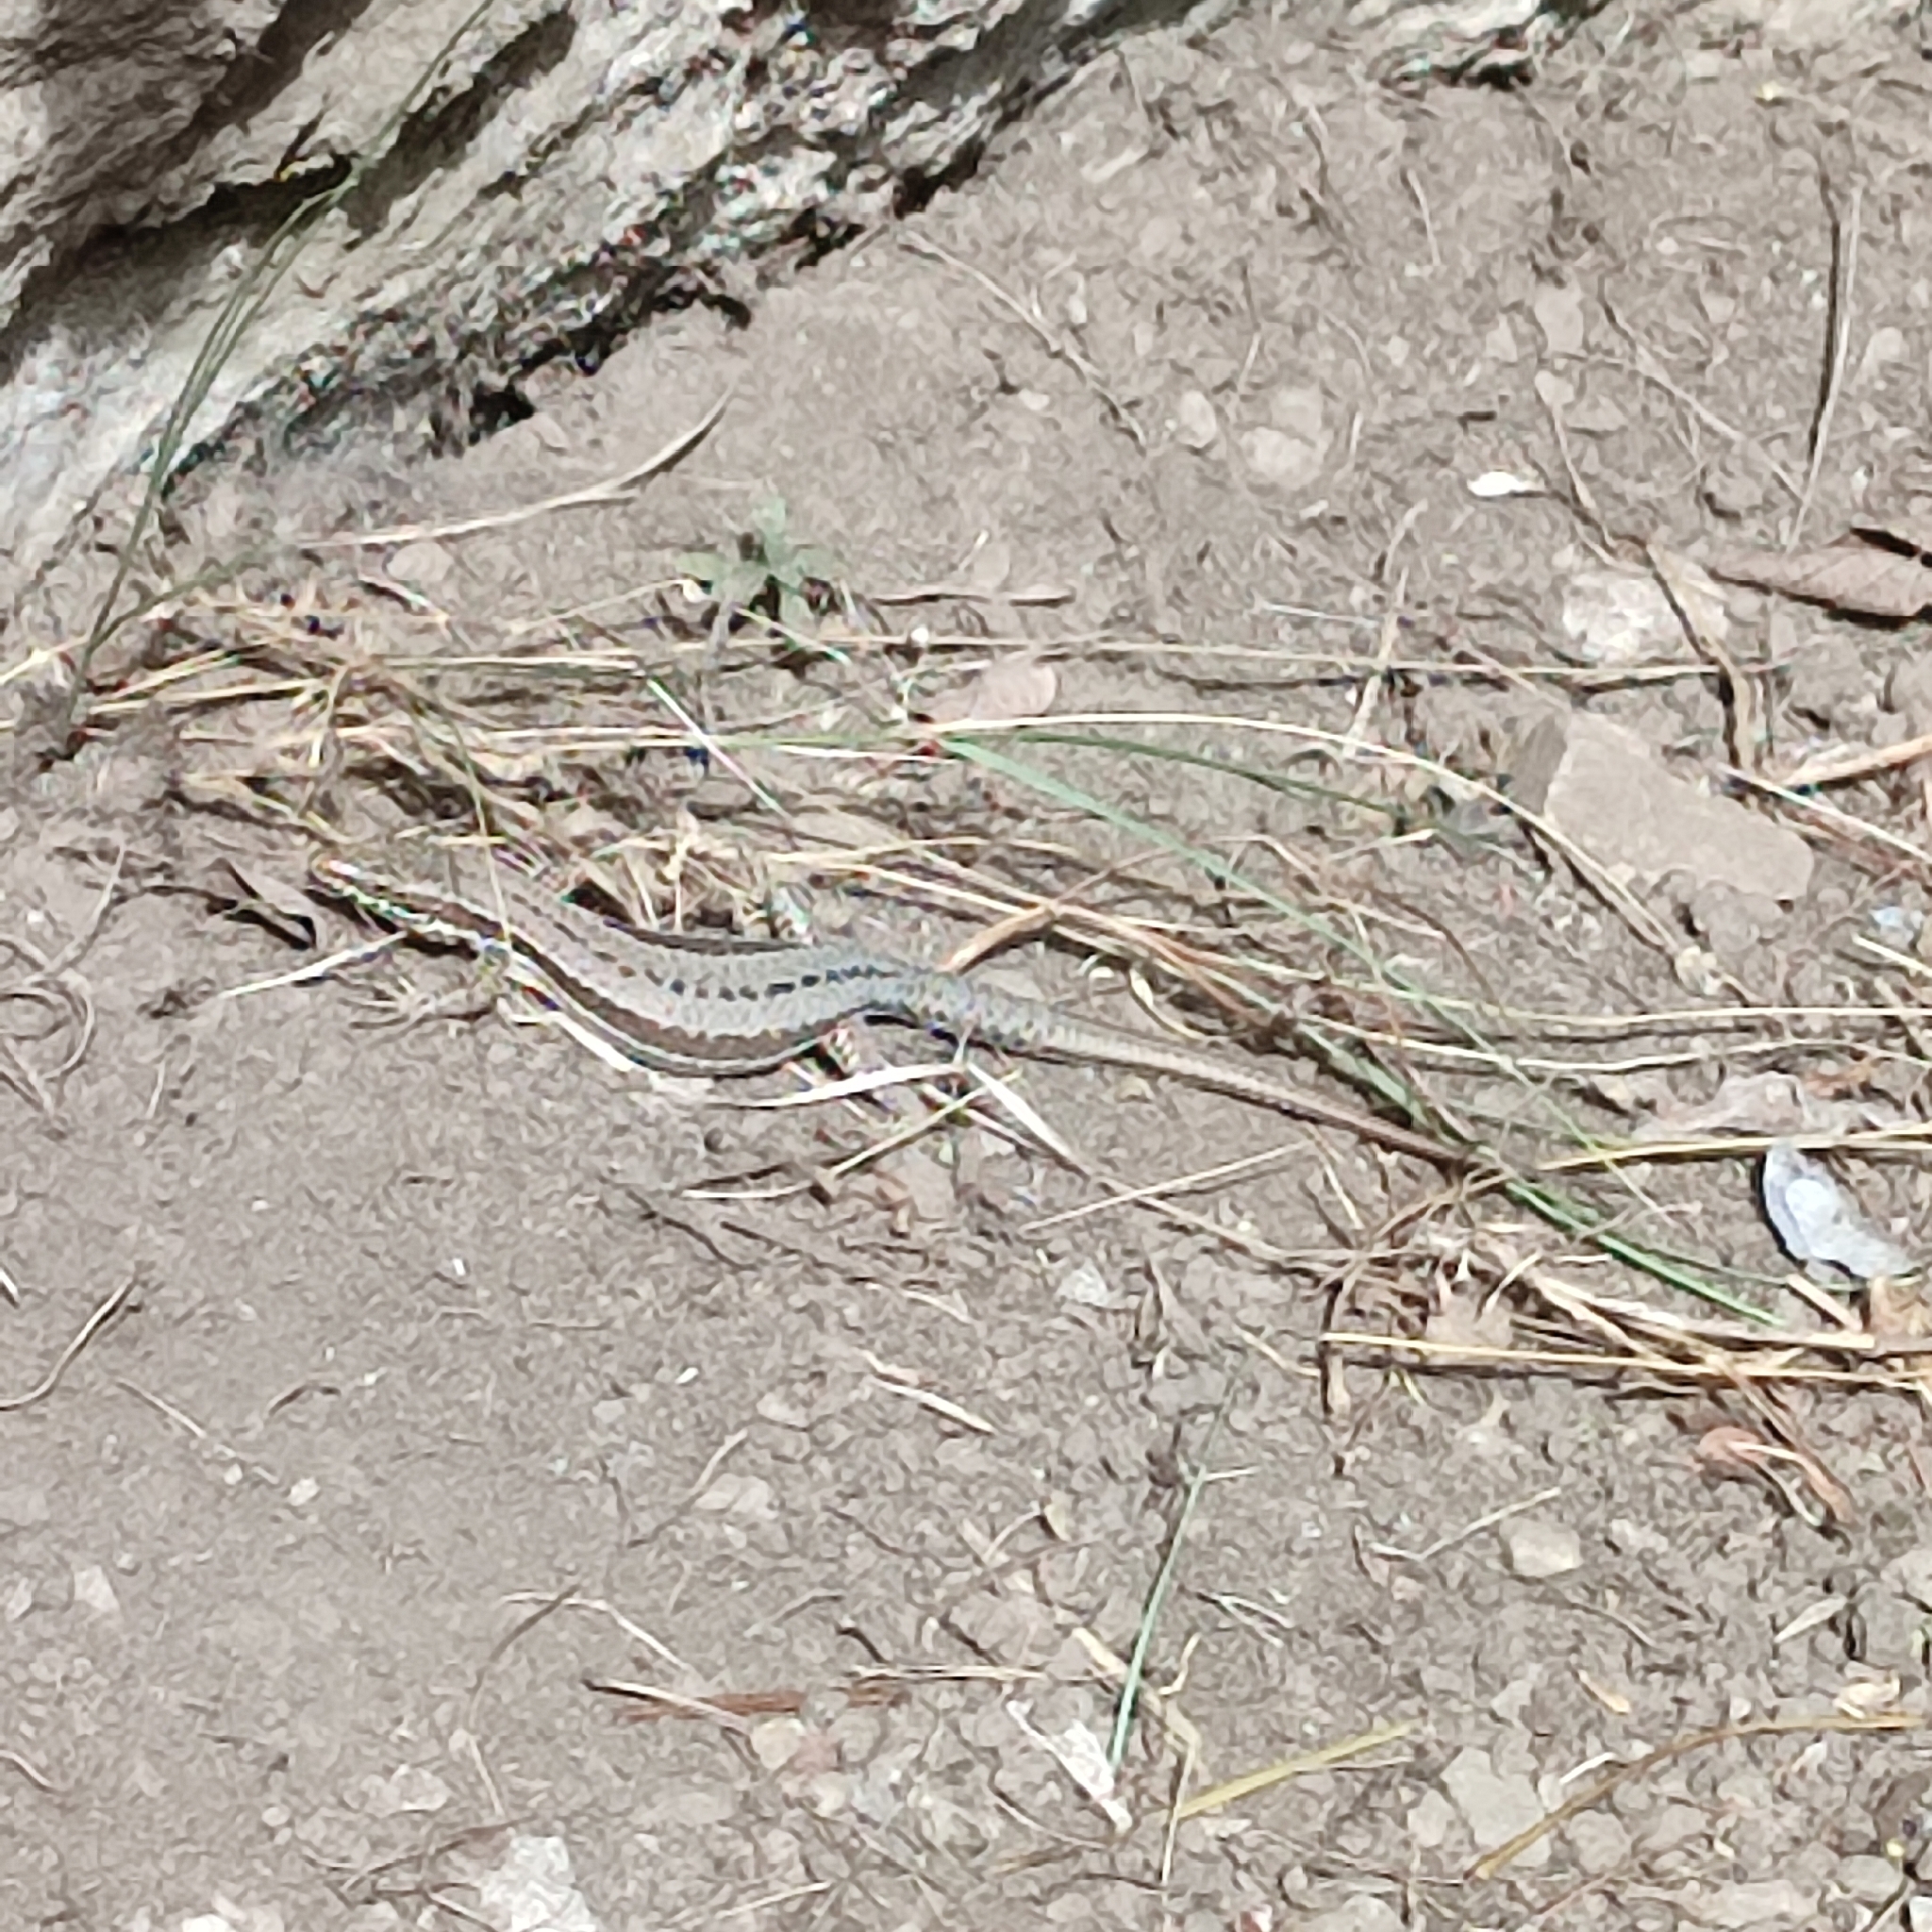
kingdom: Animalia
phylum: Chordata
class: Squamata
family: Lacertidae
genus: Podarcis
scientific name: Podarcis muralis
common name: Common wall lizard
